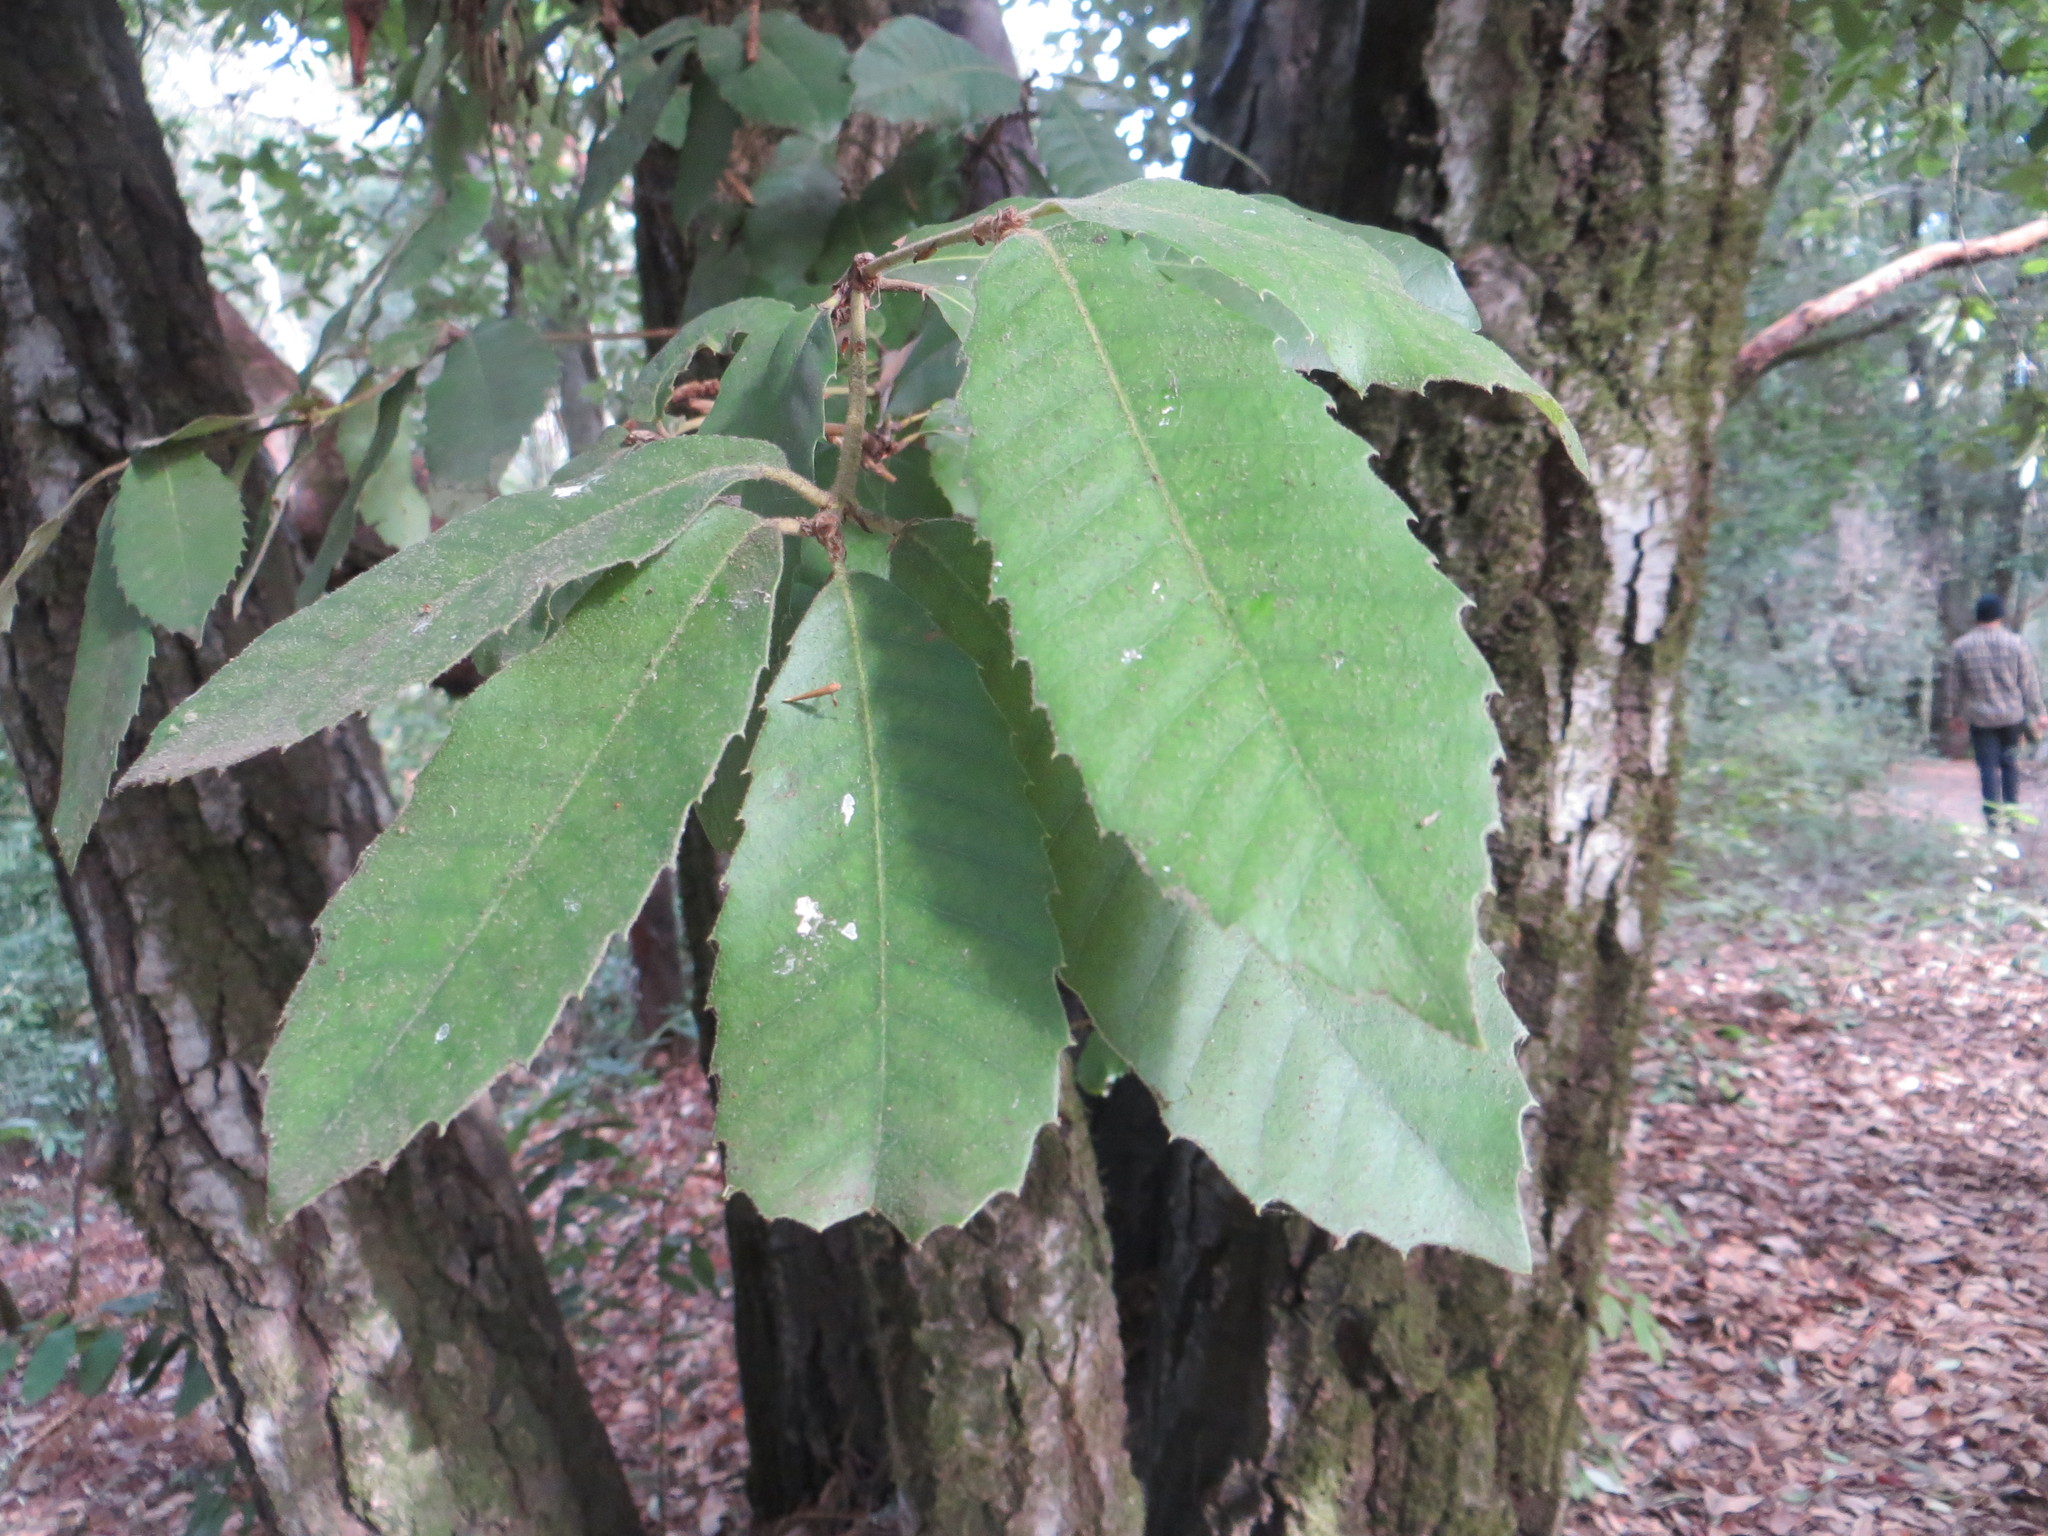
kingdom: Plantae
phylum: Tracheophyta
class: Magnoliopsida
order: Fagales
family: Fagaceae
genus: Notholithocarpus
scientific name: Notholithocarpus densiflorus
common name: Tan bark oak
